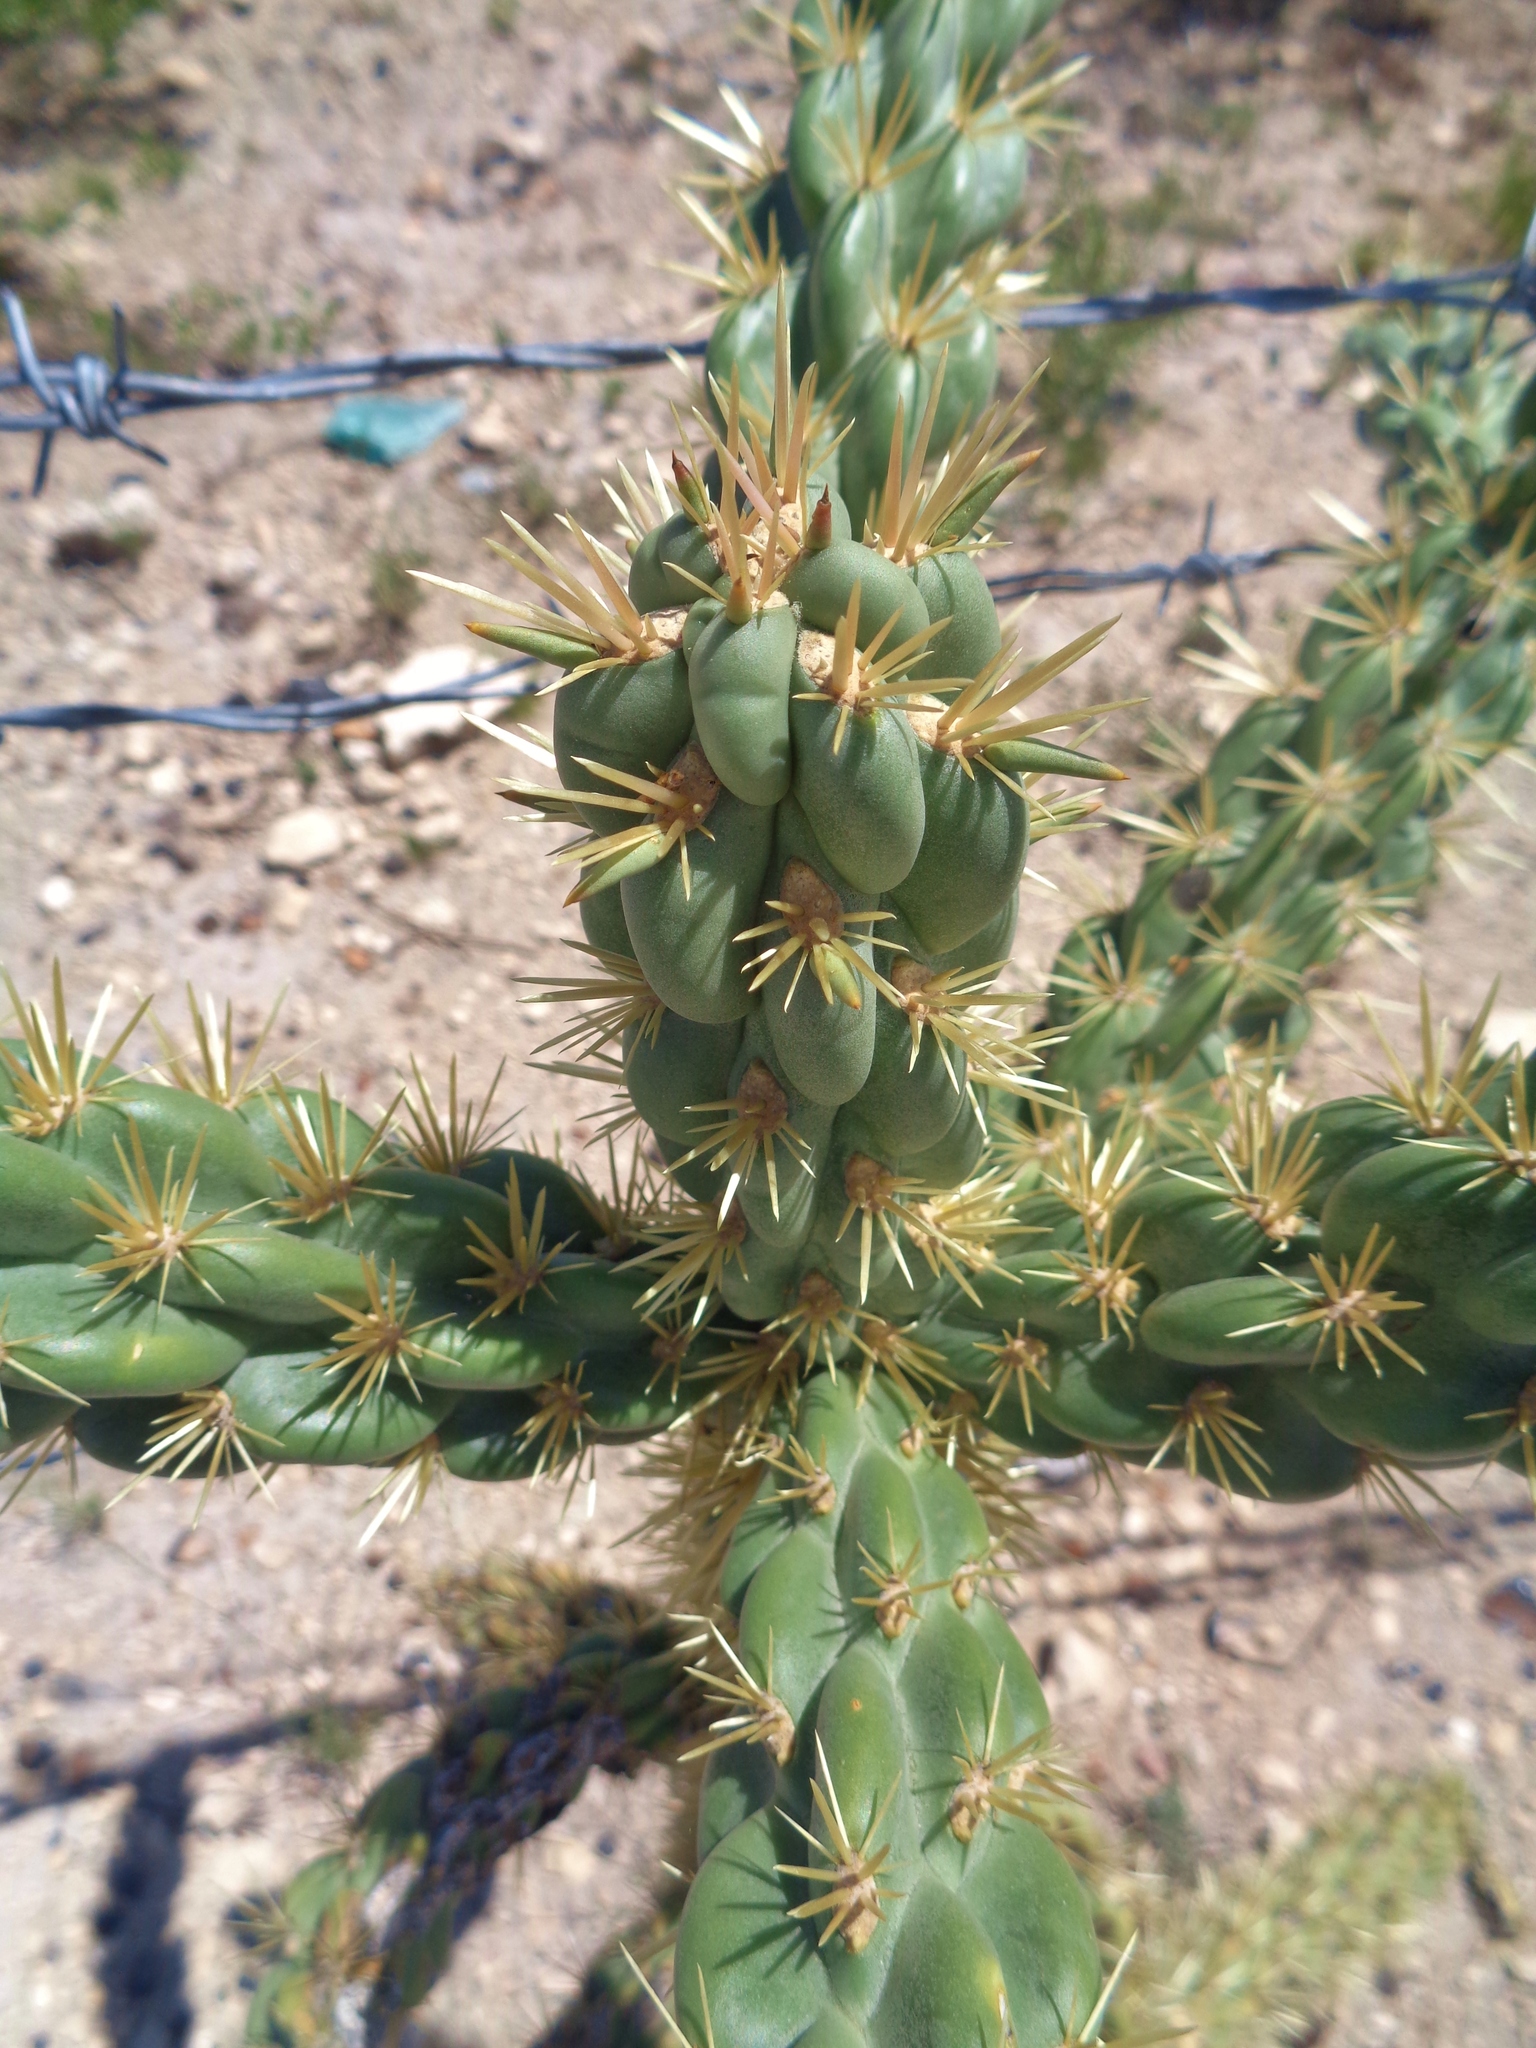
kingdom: Plantae
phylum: Tracheophyta
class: Magnoliopsida
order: Caryophyllales
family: Cactaceae
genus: Cylindropuntia
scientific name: Cylindropuntia imbricata
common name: Candelabrum cactus
